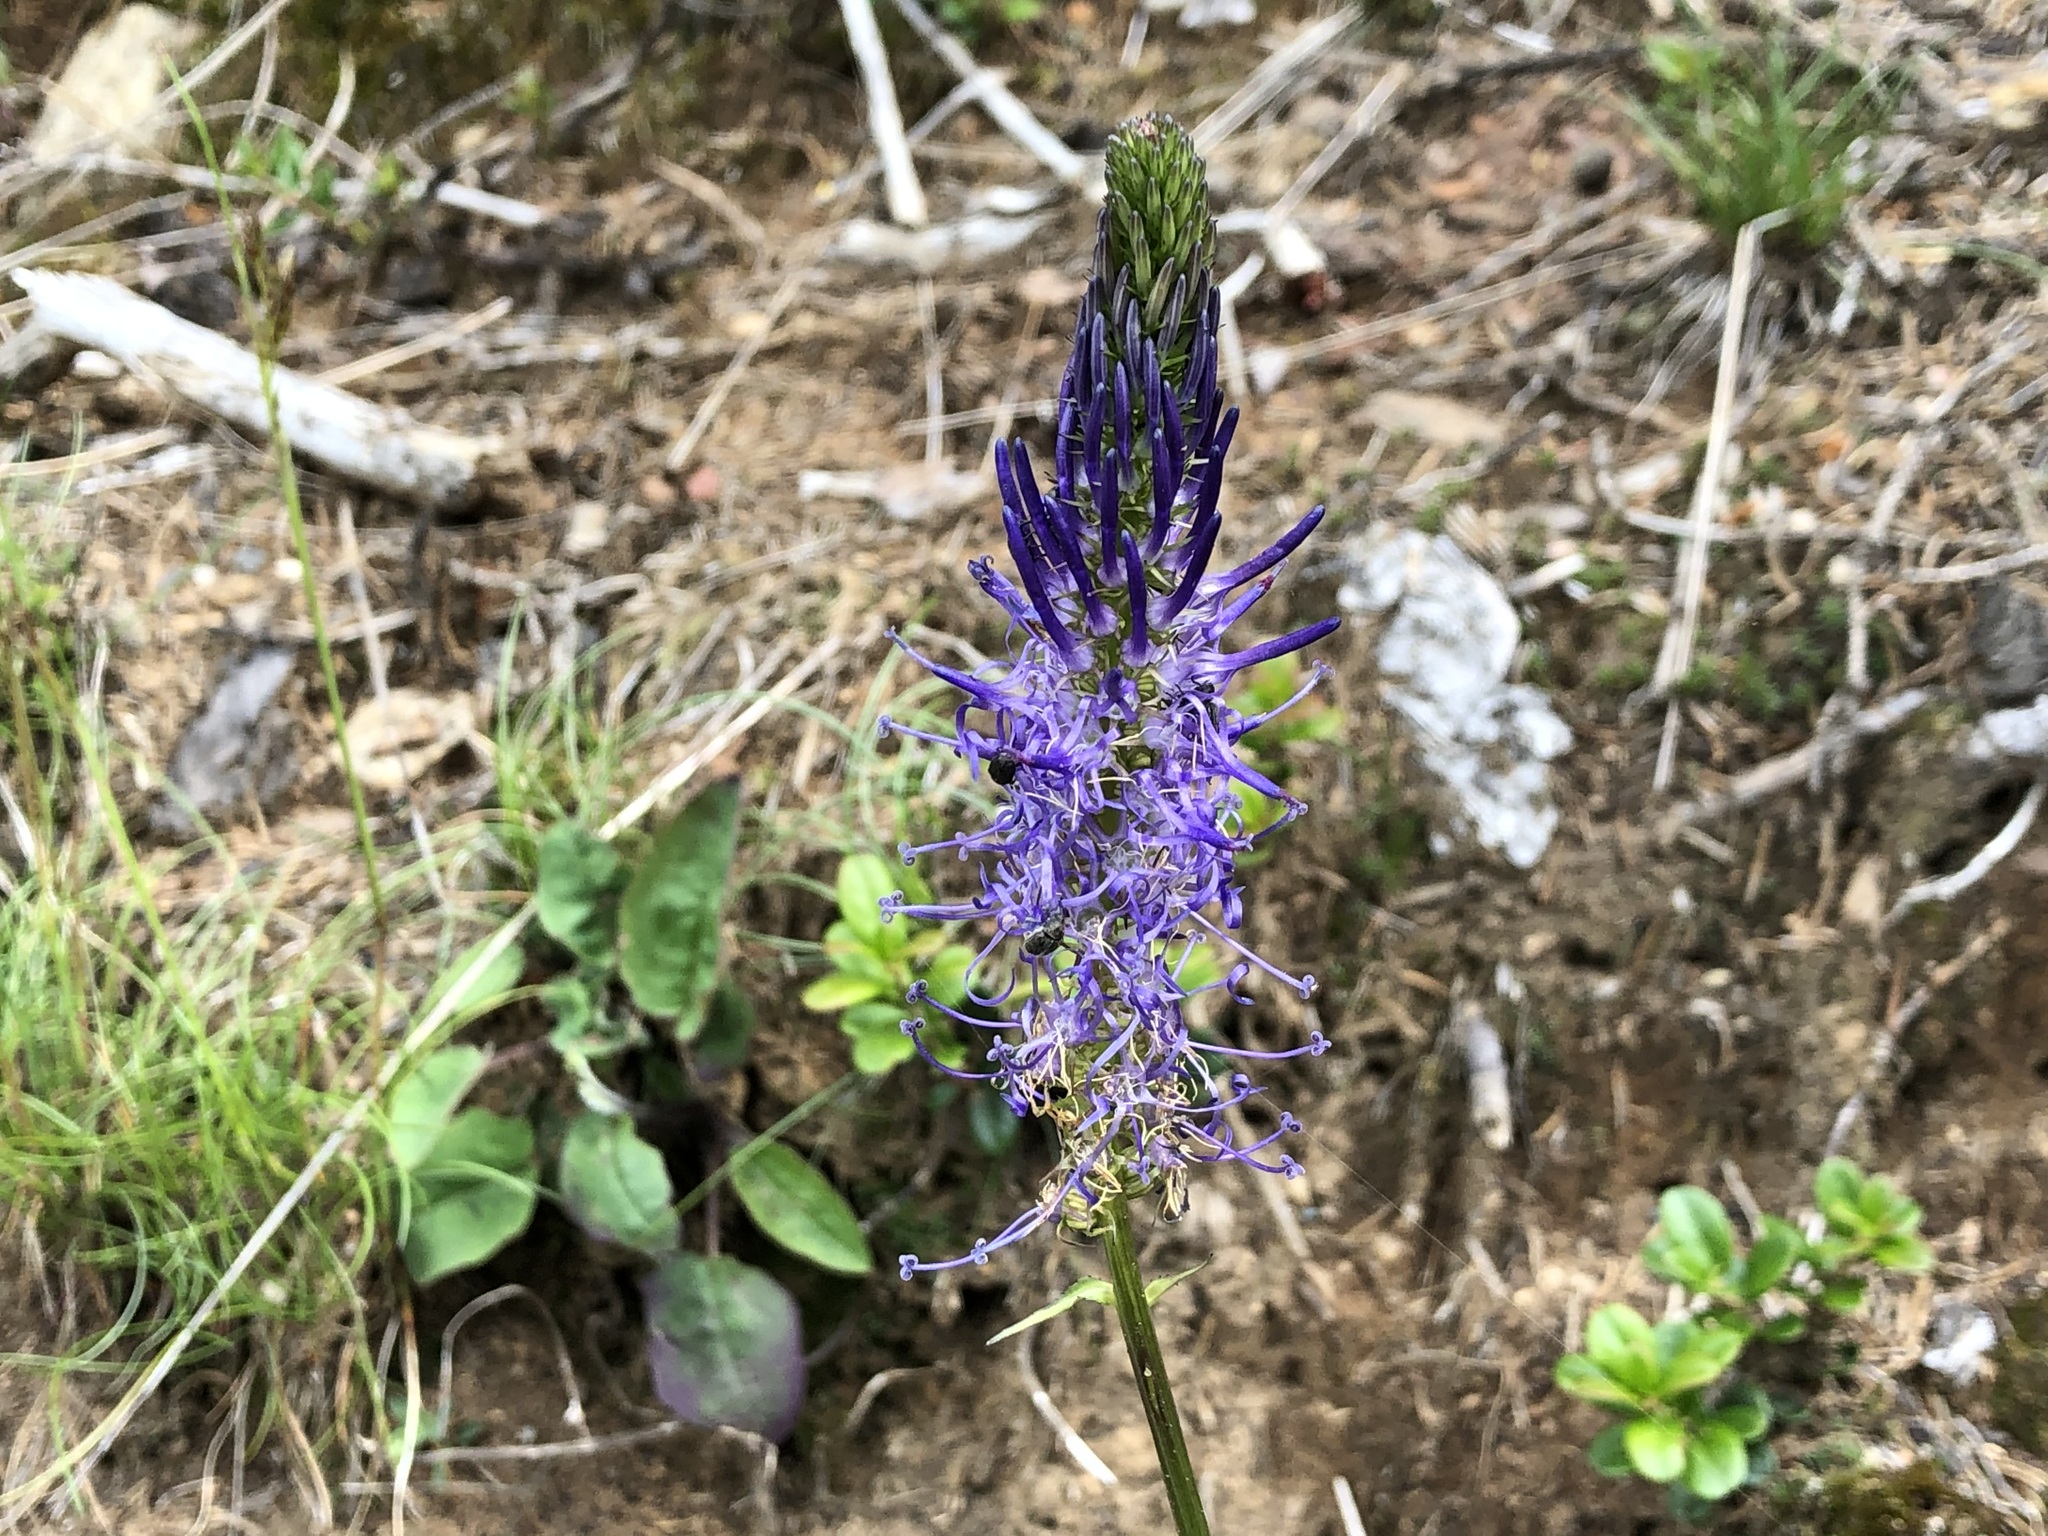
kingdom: Plantae
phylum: Tracheophyta
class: Magnoliopsida
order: Asterales
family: Campanulaceae
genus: Phyteuma
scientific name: Phyteuma betonicifolium
